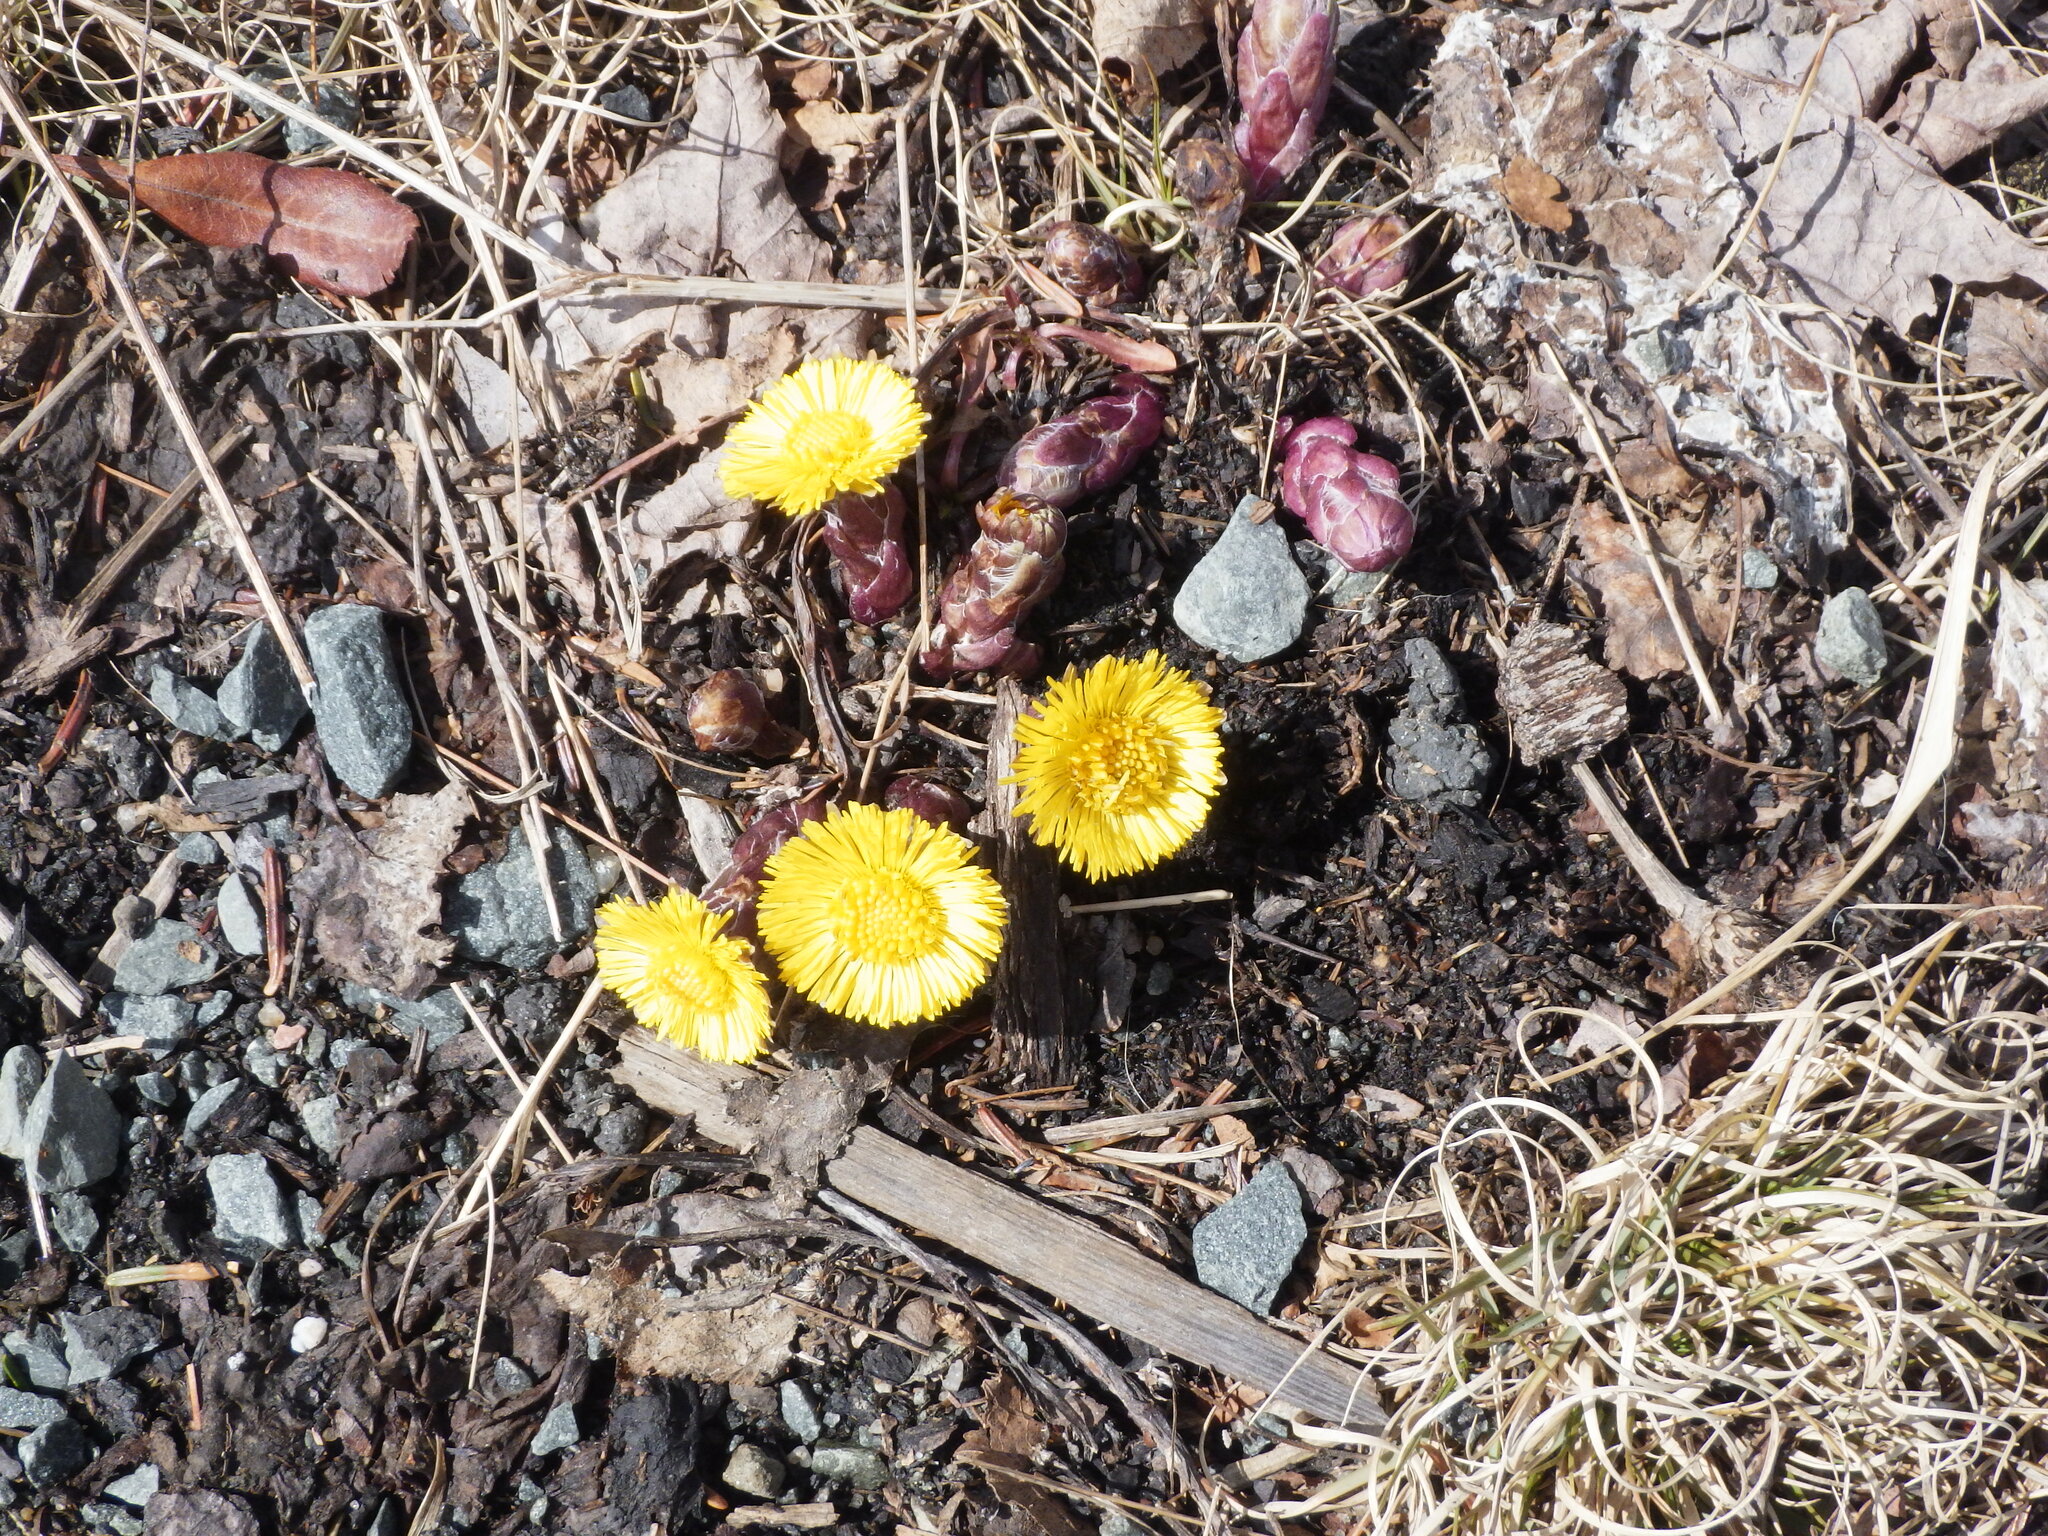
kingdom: Plantae
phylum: Tracheophyta
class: Magnoliopsida
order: Asterales
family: Asteraceae
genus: Tussilago
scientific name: Tussilago farfara
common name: Coltsfoot
